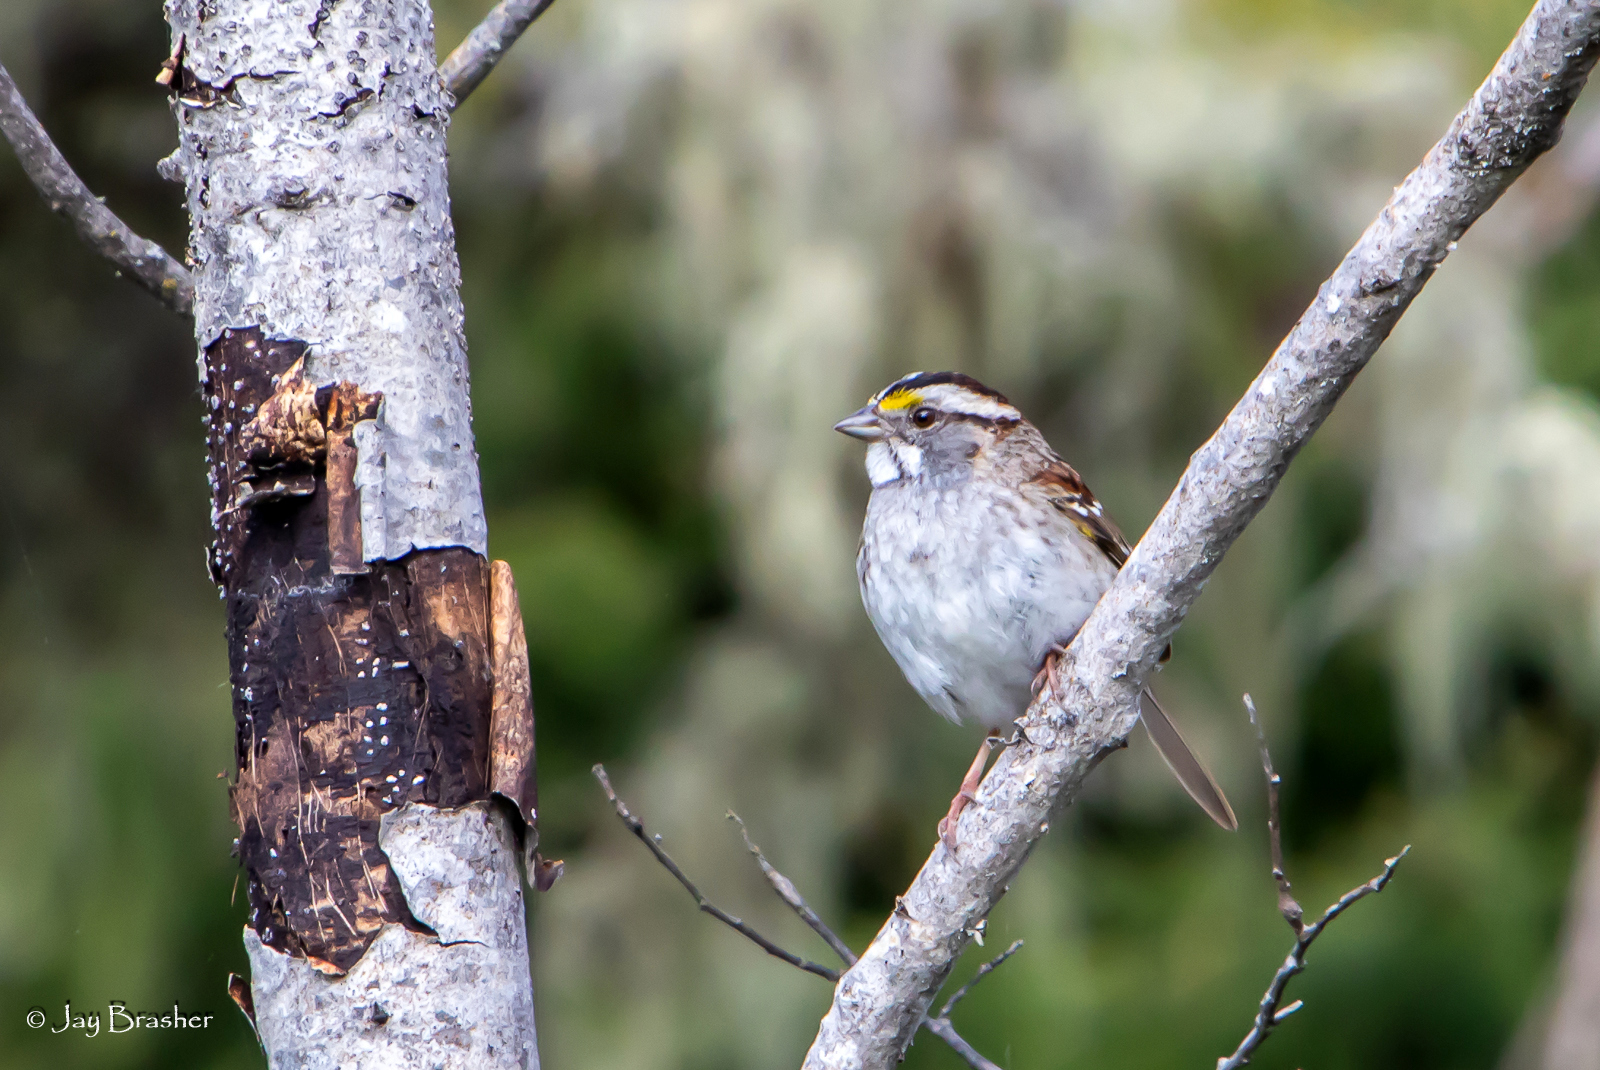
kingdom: Animalia
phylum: Chordata
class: Aves
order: Passeriformes
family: Passerellidae
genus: Zonotrichia
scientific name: Zonotrichia albicollis
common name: White-throated sparrow
